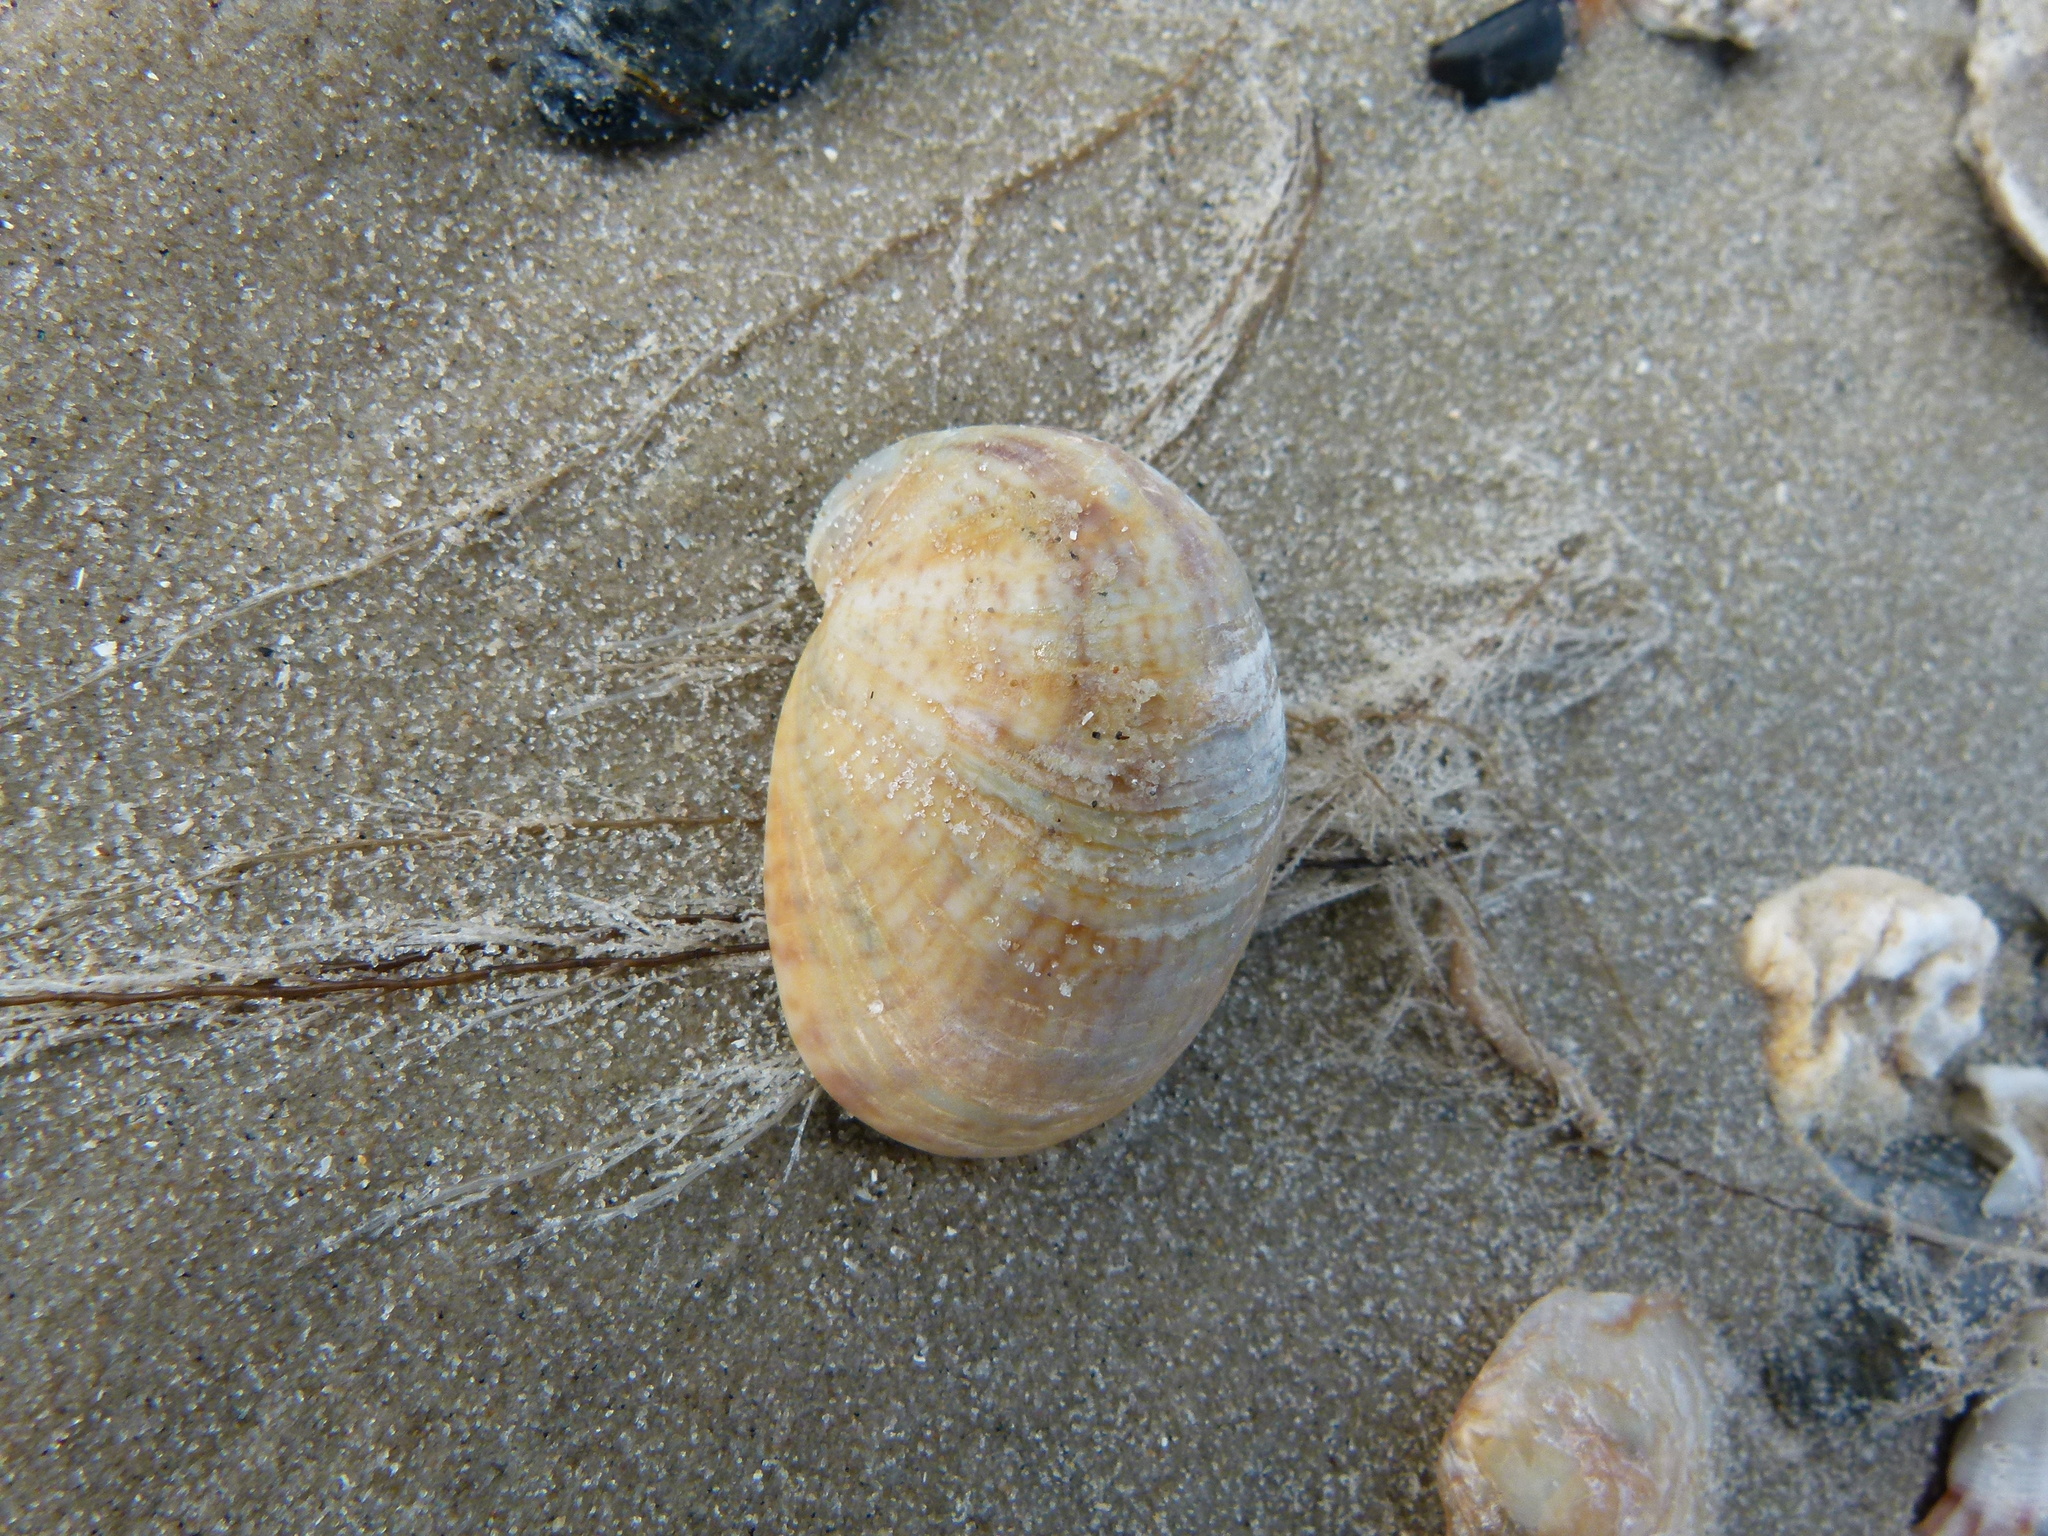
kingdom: Animalia
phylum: Mollusca
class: Gastropoda
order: Littorinimorpha
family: Calyptraeidae
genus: Crepidula
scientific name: Crepidula fornicata
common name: Slipper limpet
